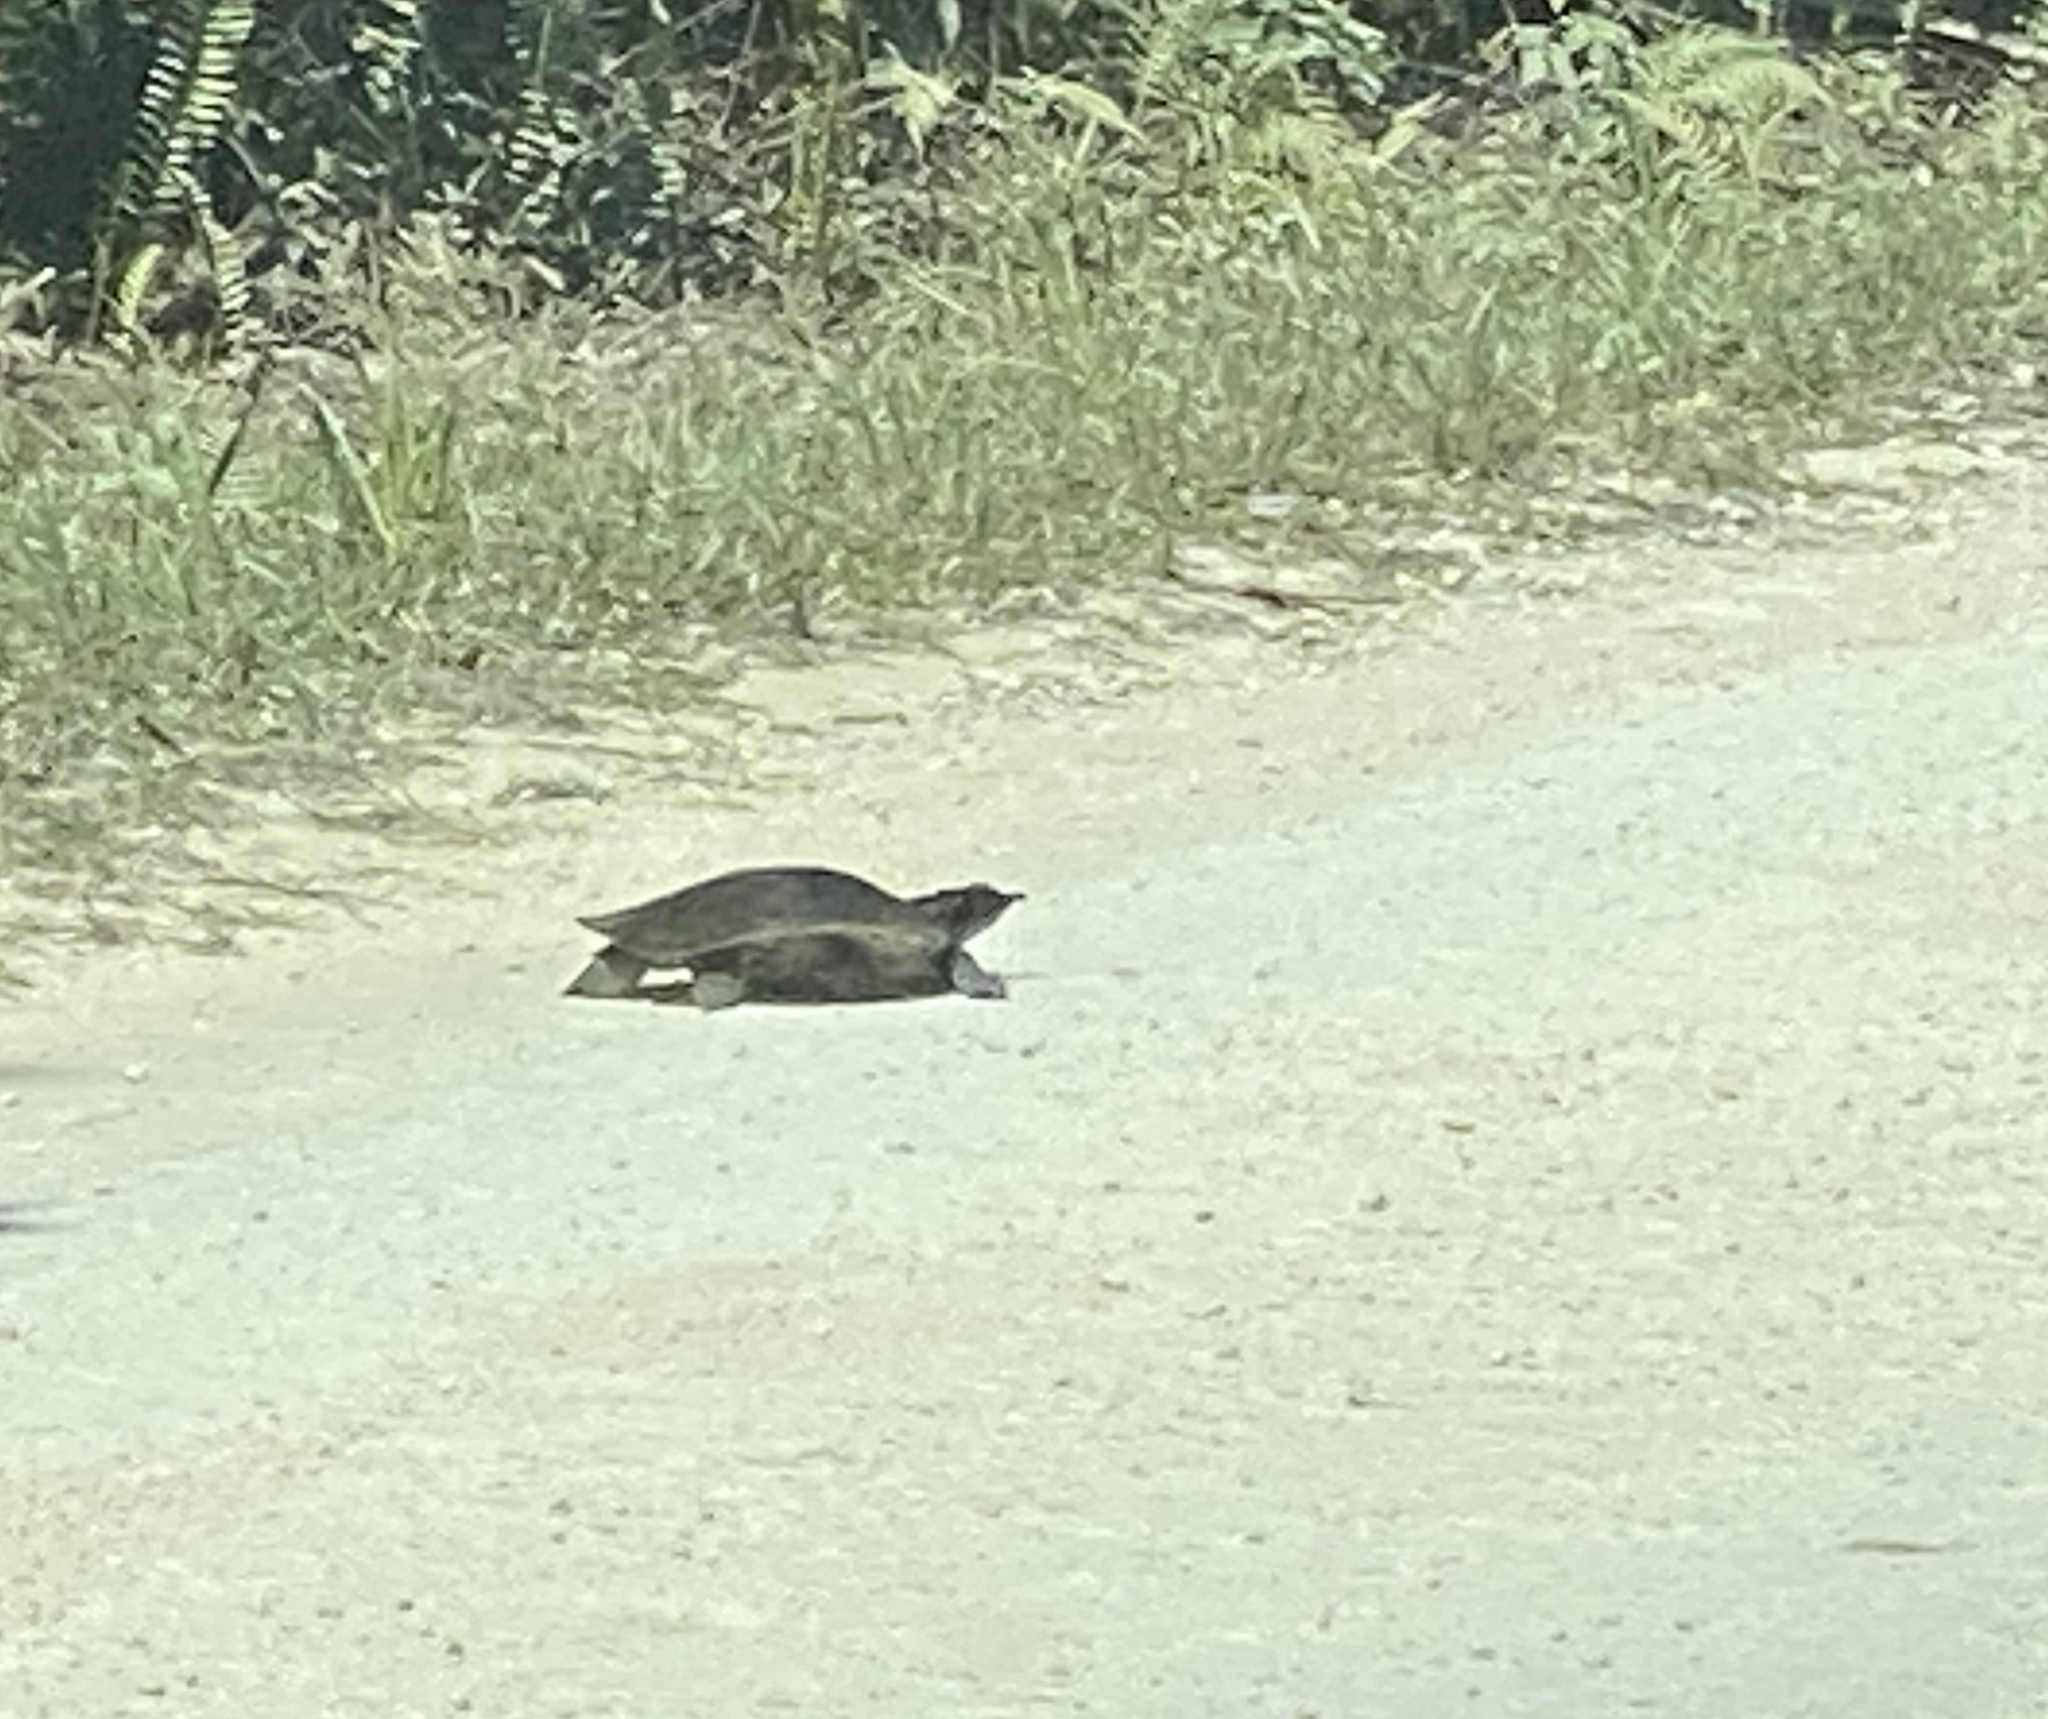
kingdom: Animalia
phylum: Chordata
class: Testudines
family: Trionychidae
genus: Apalone
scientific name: Apalone ferox
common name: Florida softshell turtle
